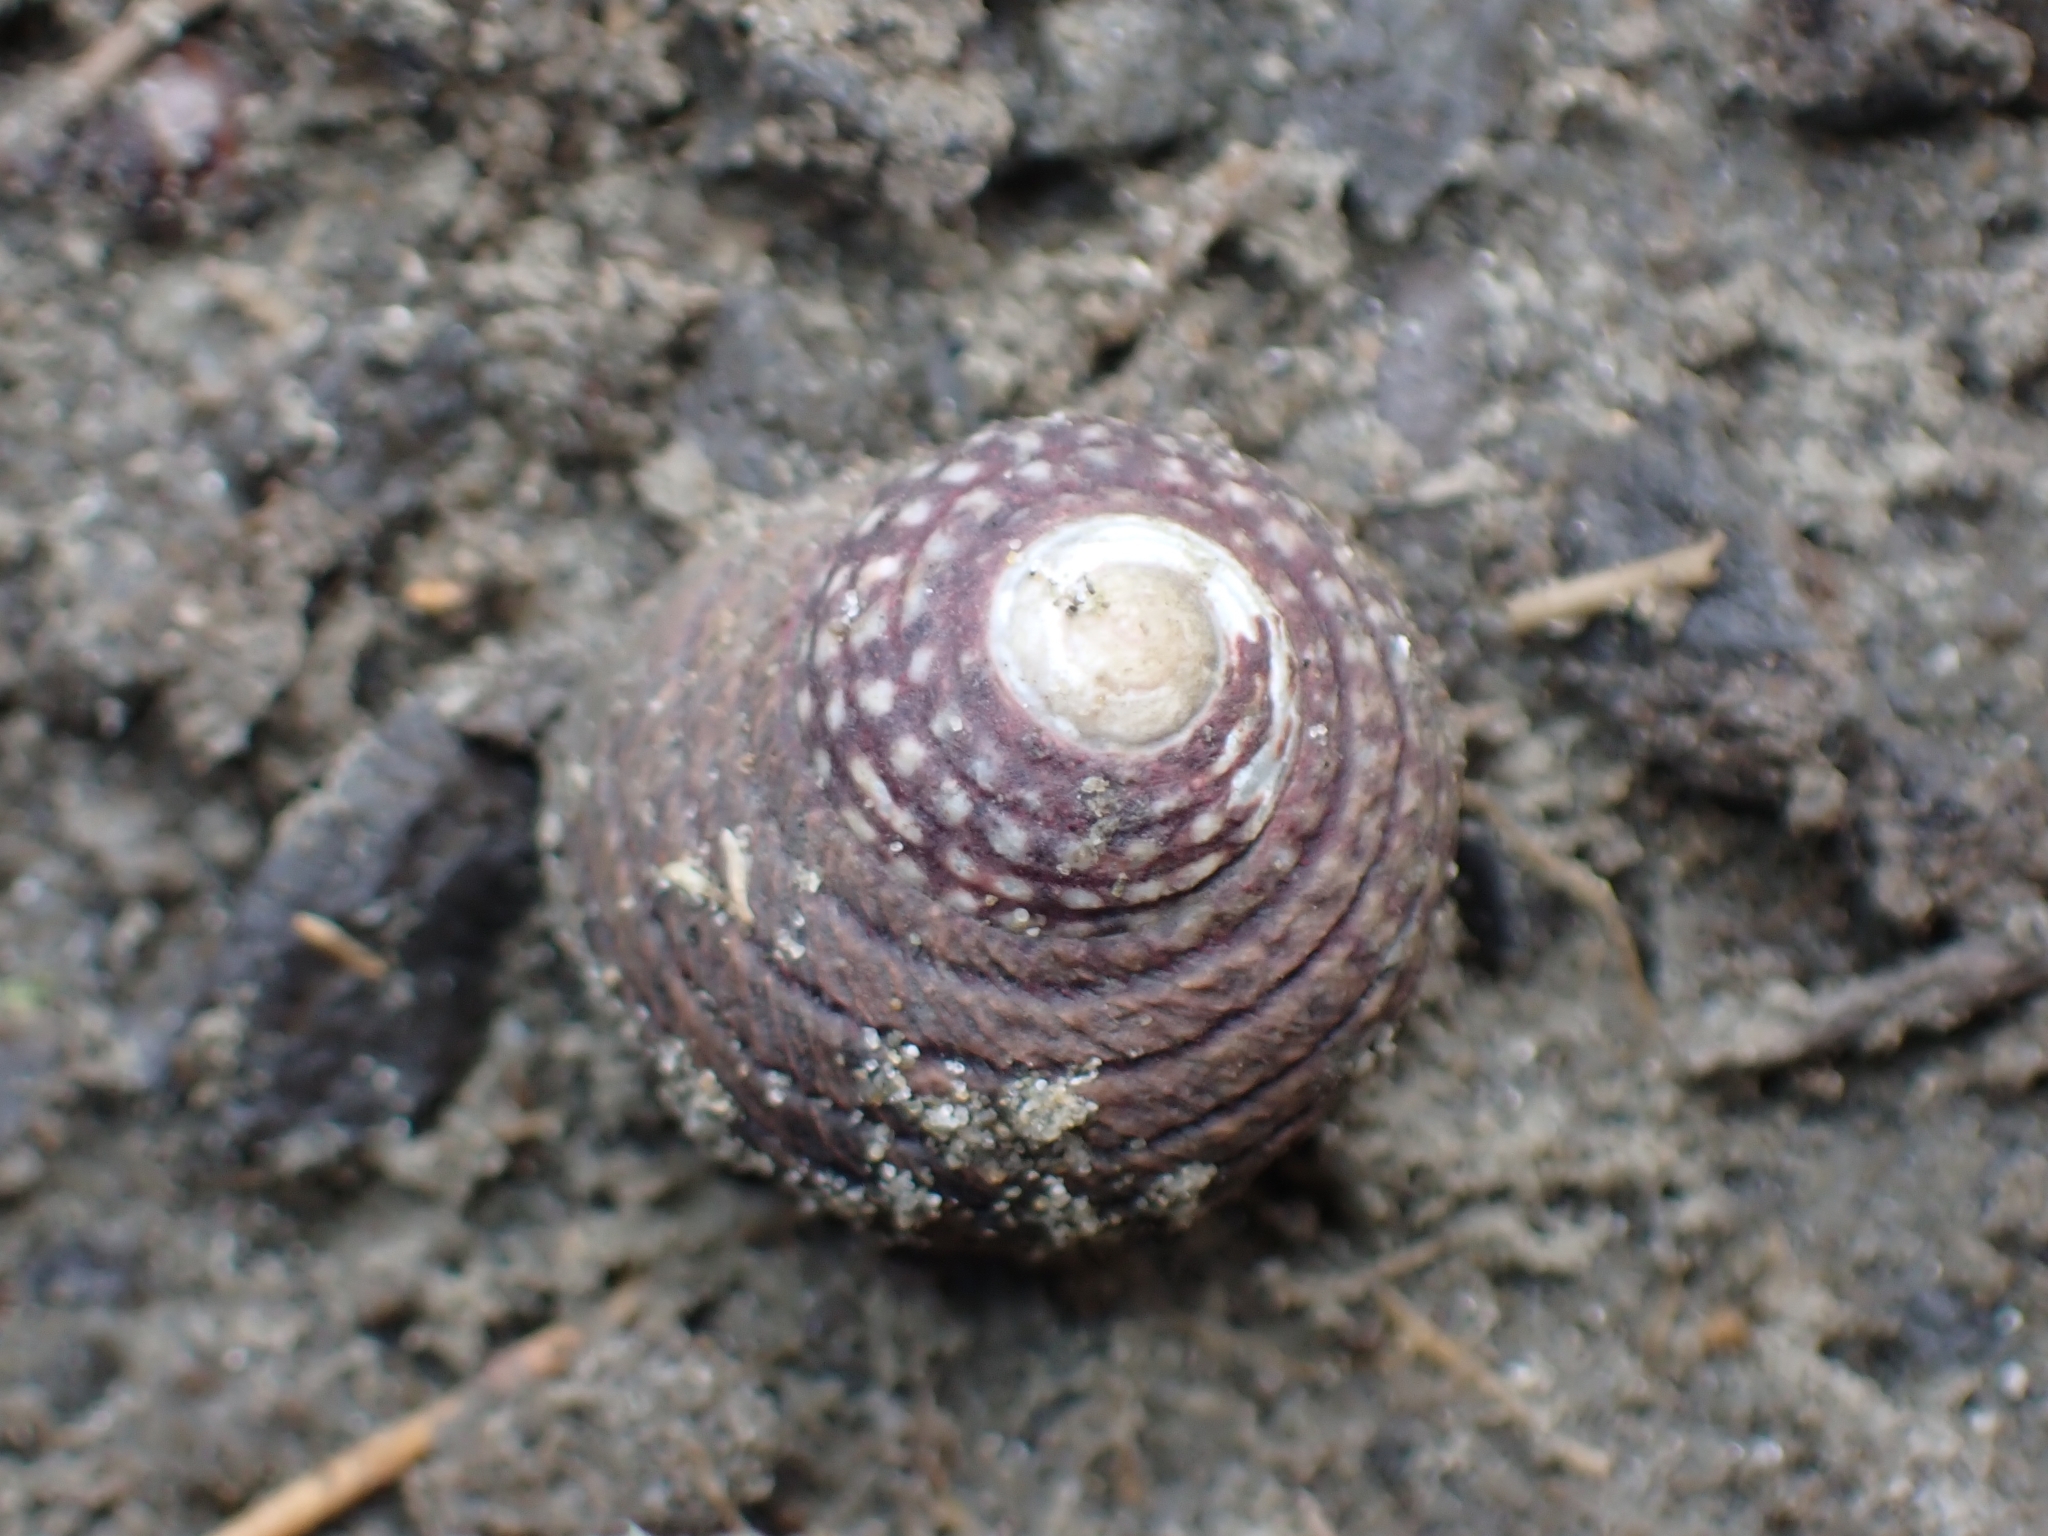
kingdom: Animalia
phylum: Mollusca
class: Gastropoda
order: Trochida
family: Trochidae
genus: Diloma
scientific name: Diloma aethiops
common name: Scorched monodont
